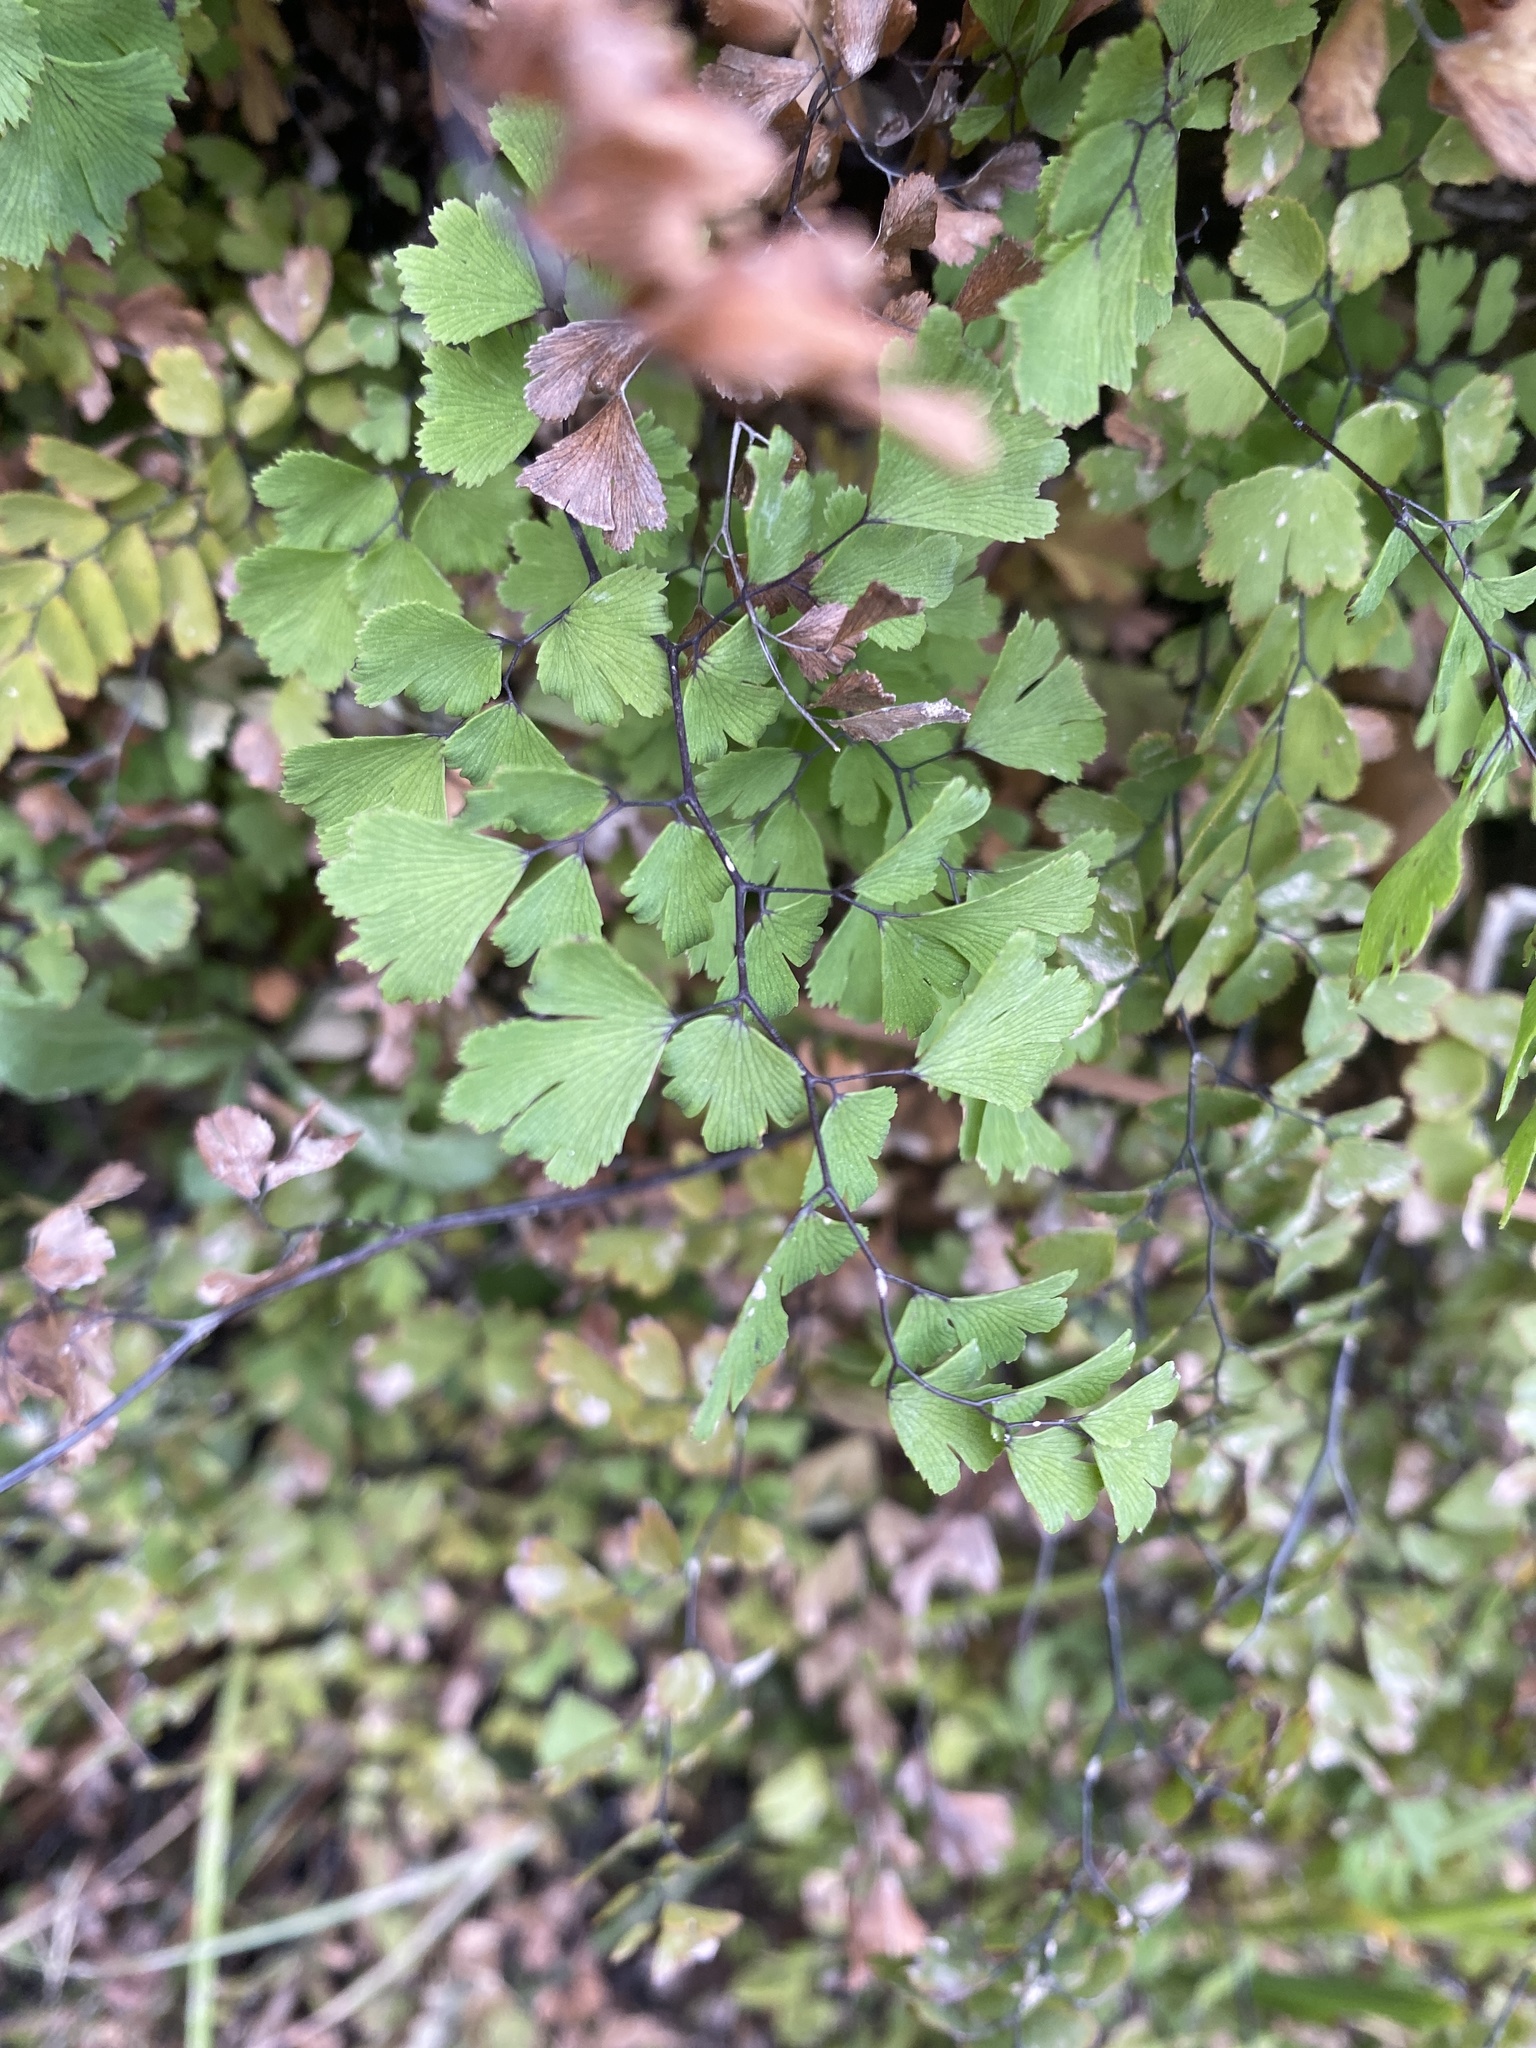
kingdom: Plantae
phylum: Tracheophyta
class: Polypodiopsida
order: Polypodiales
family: Pteridaceae
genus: Adiantum
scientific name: Adiantum capillus-veneris
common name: Maidenhair fern
